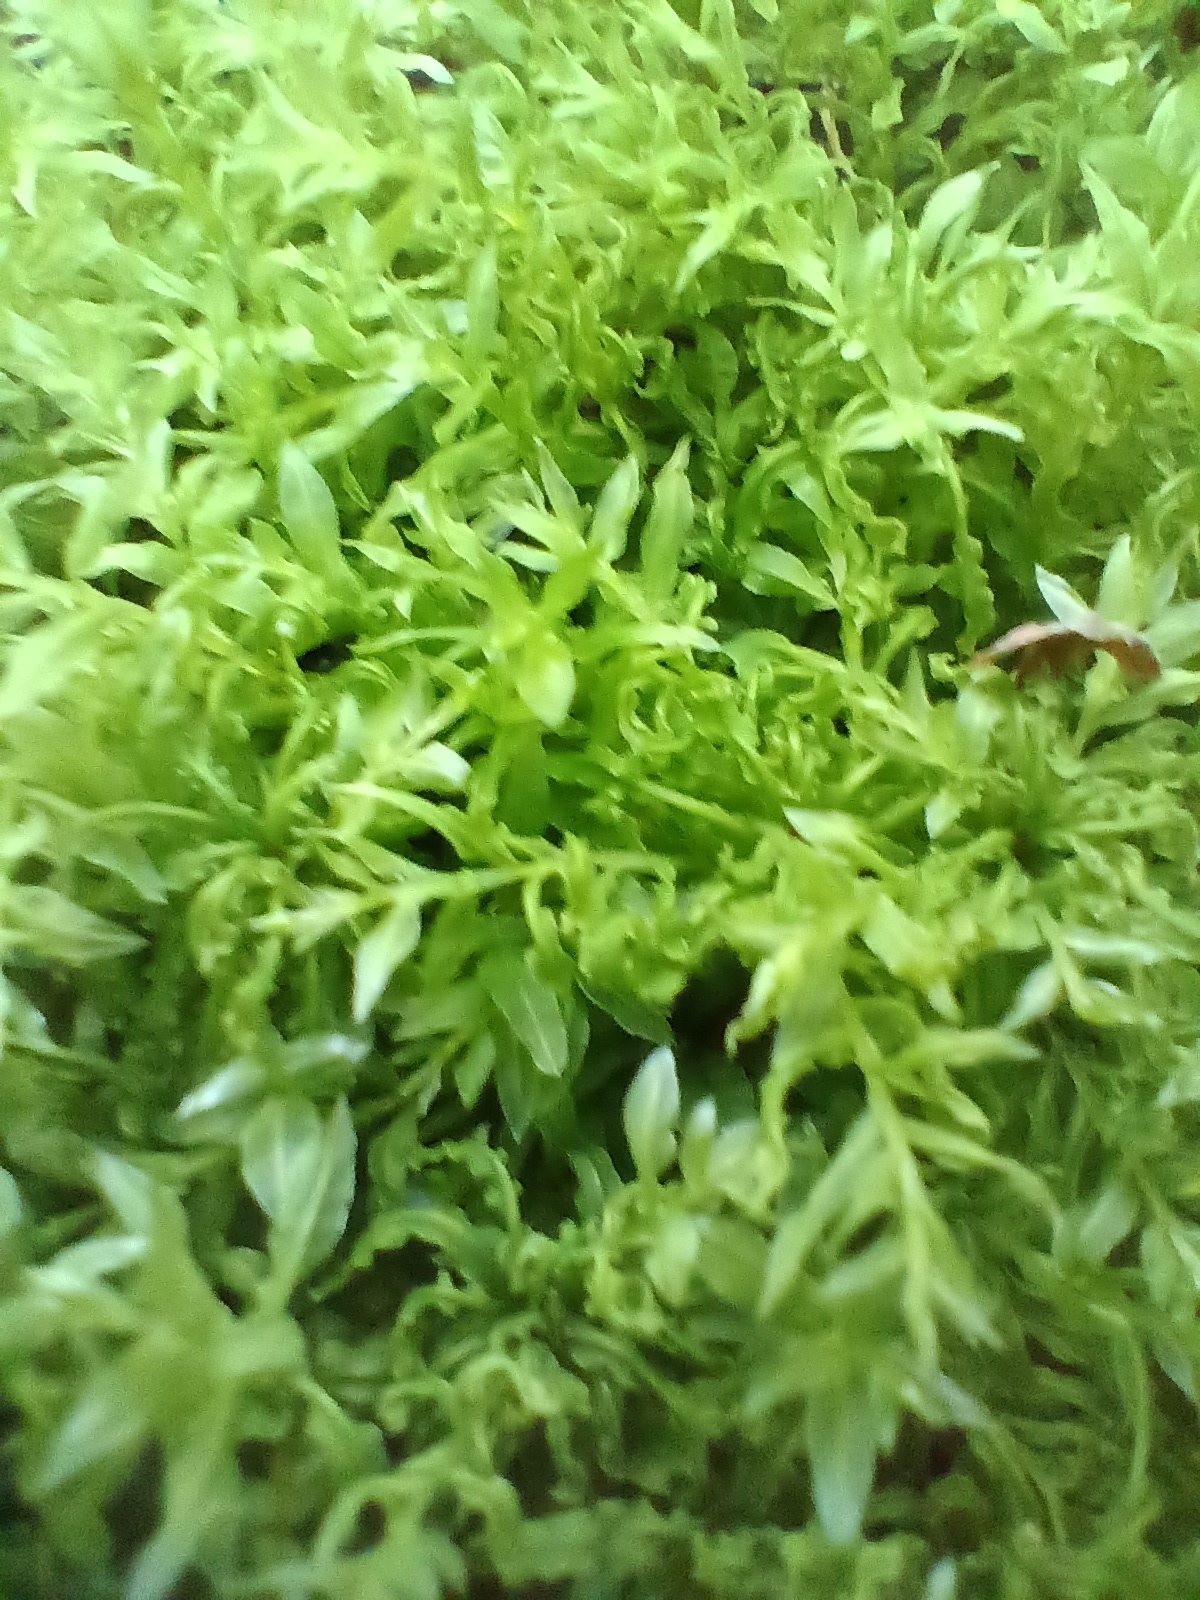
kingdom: Plantae
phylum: Bryophyta
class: Bryopsida
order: Bryales
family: Mniaceae
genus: Plagiomnium
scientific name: Plagiomnium undulatum
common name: Hart's-tongue thyme-moss
